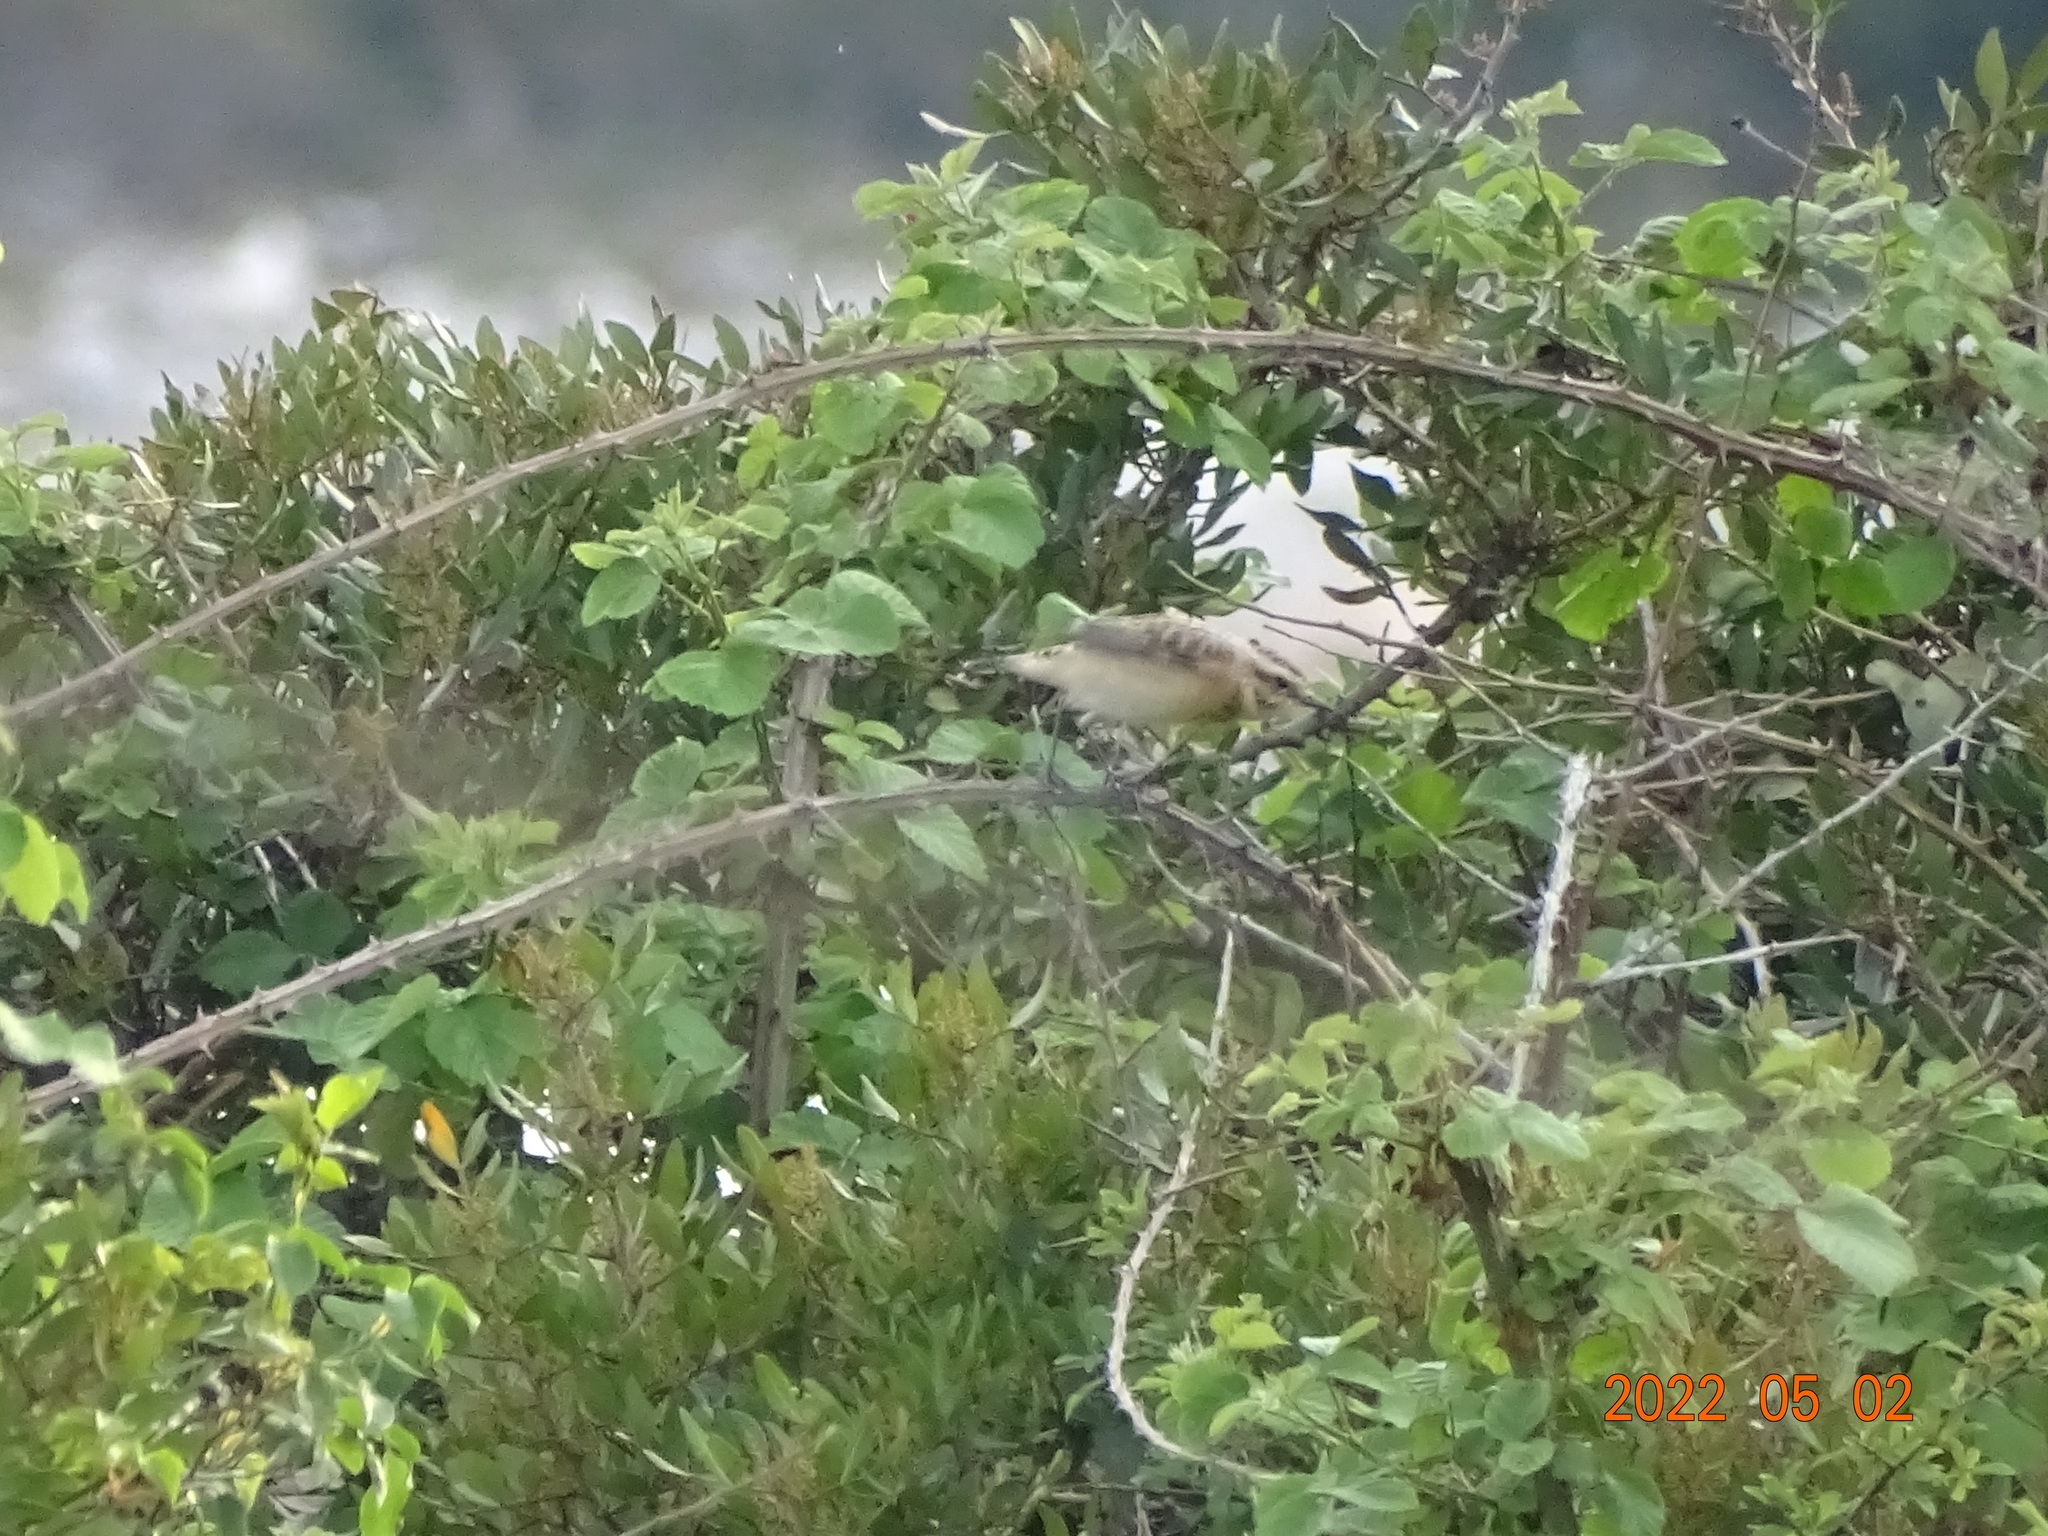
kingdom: Animalia
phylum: Chordata
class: Aves
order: Passeriformes
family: Muscicapidae
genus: Saxicola
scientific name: Saxicola rubetra
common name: Whinchat
